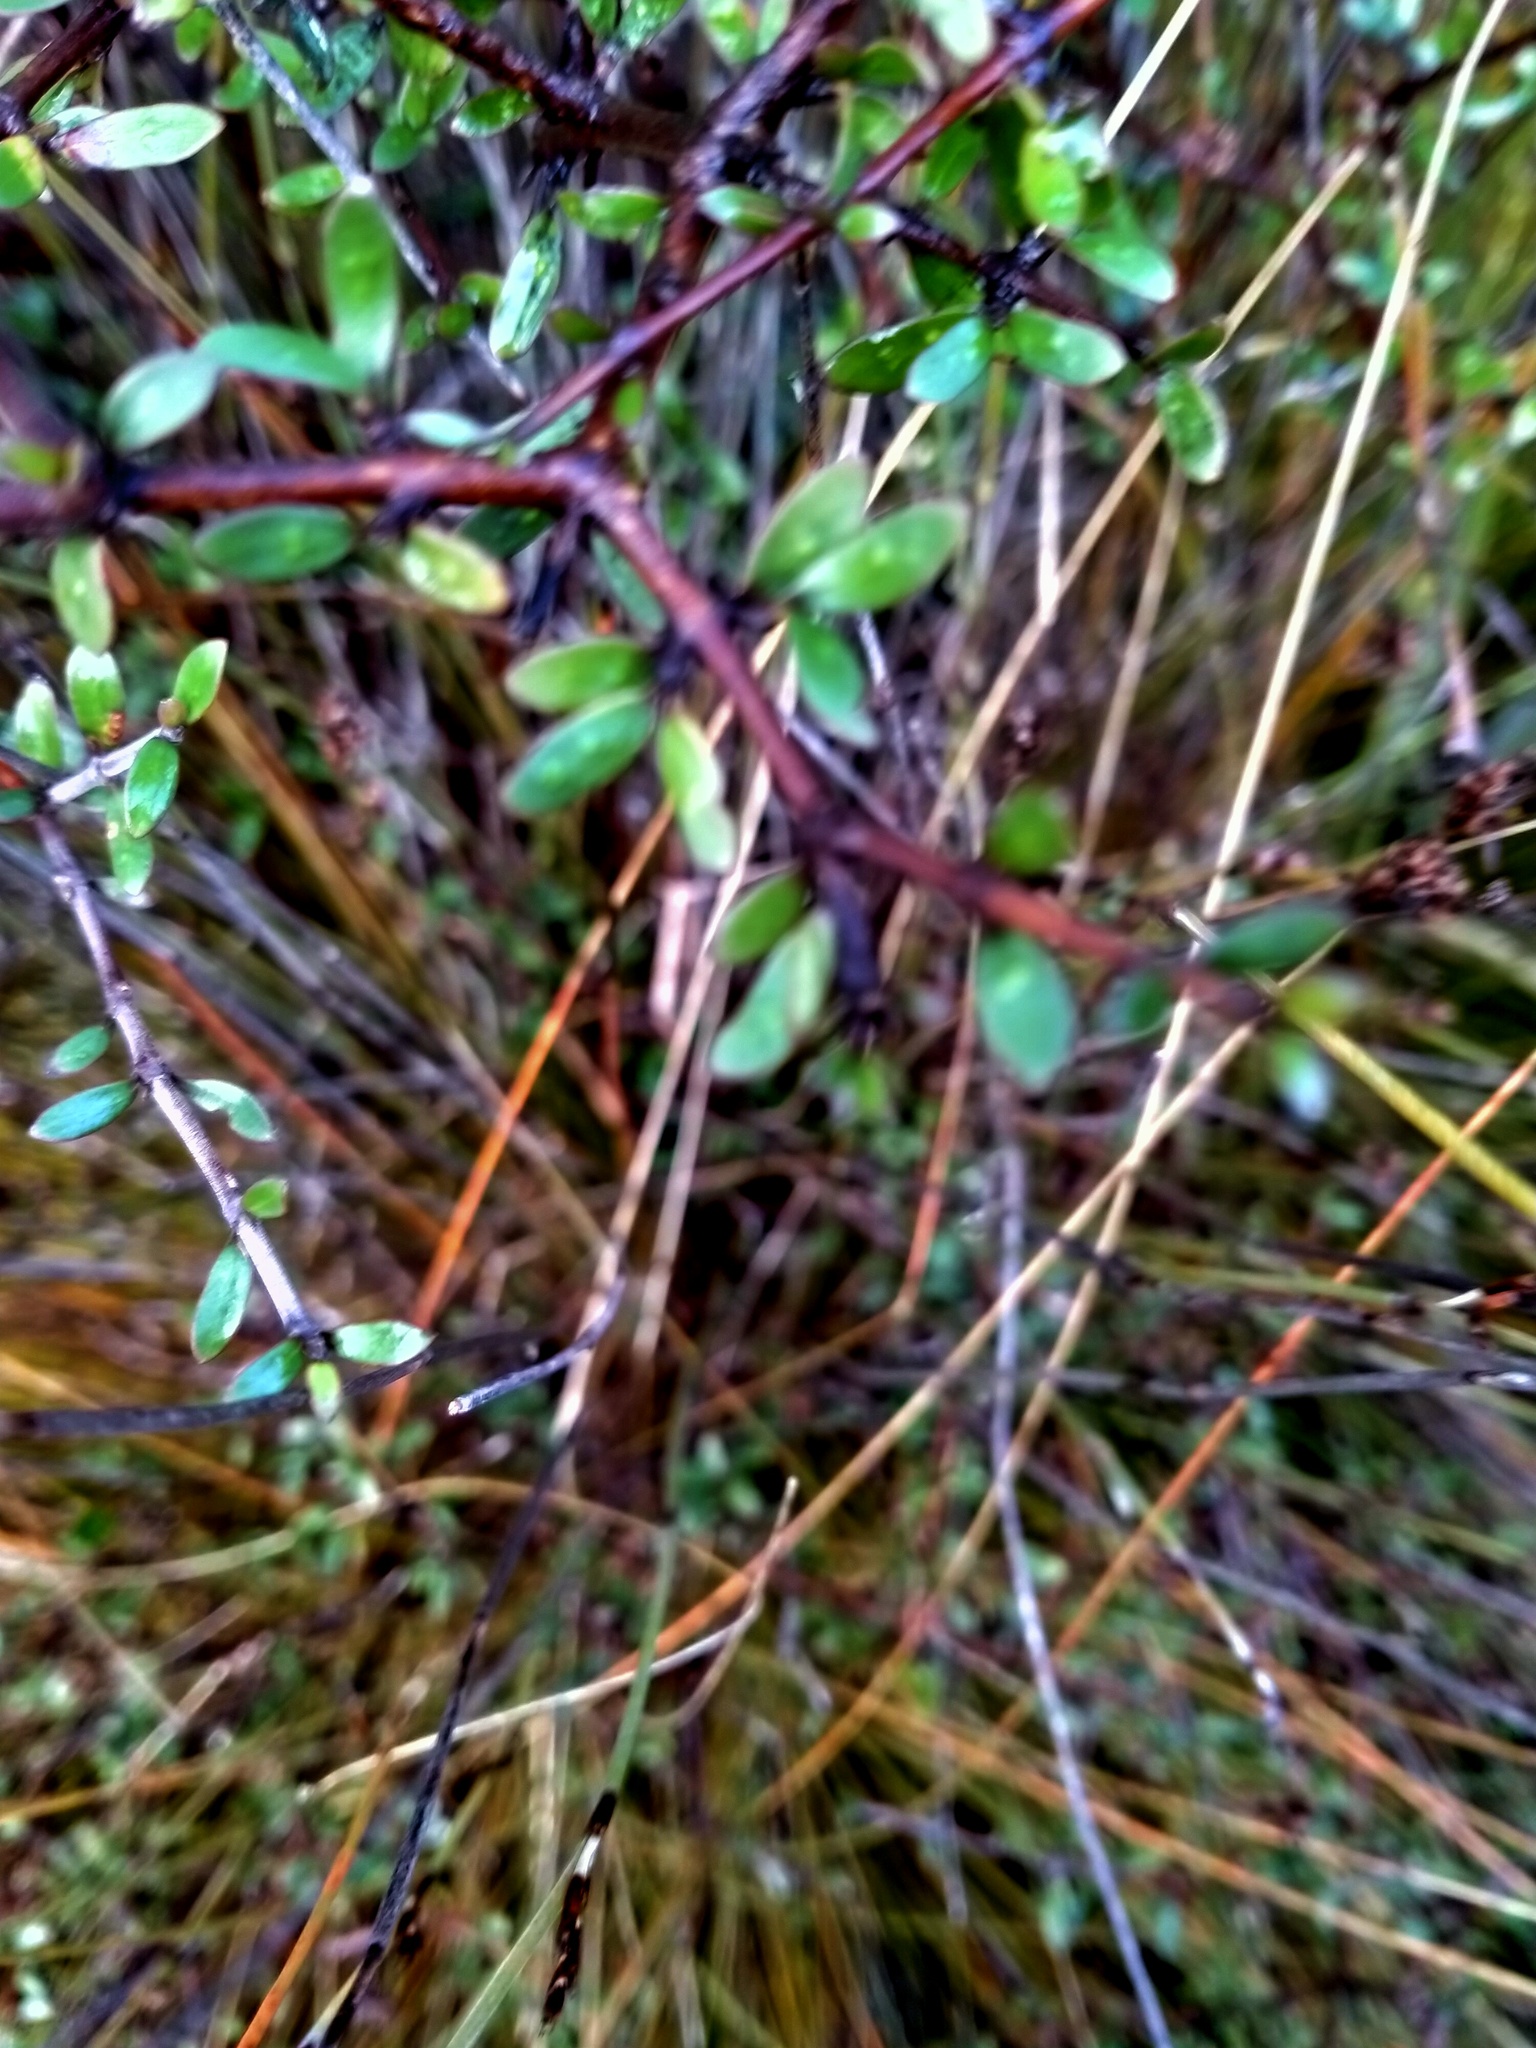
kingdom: Plantae
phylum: Tracheophyta
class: Magnoliopsida
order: Gentianales
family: Rubiaceae
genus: Coprosma
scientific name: Coprosma propinqua
